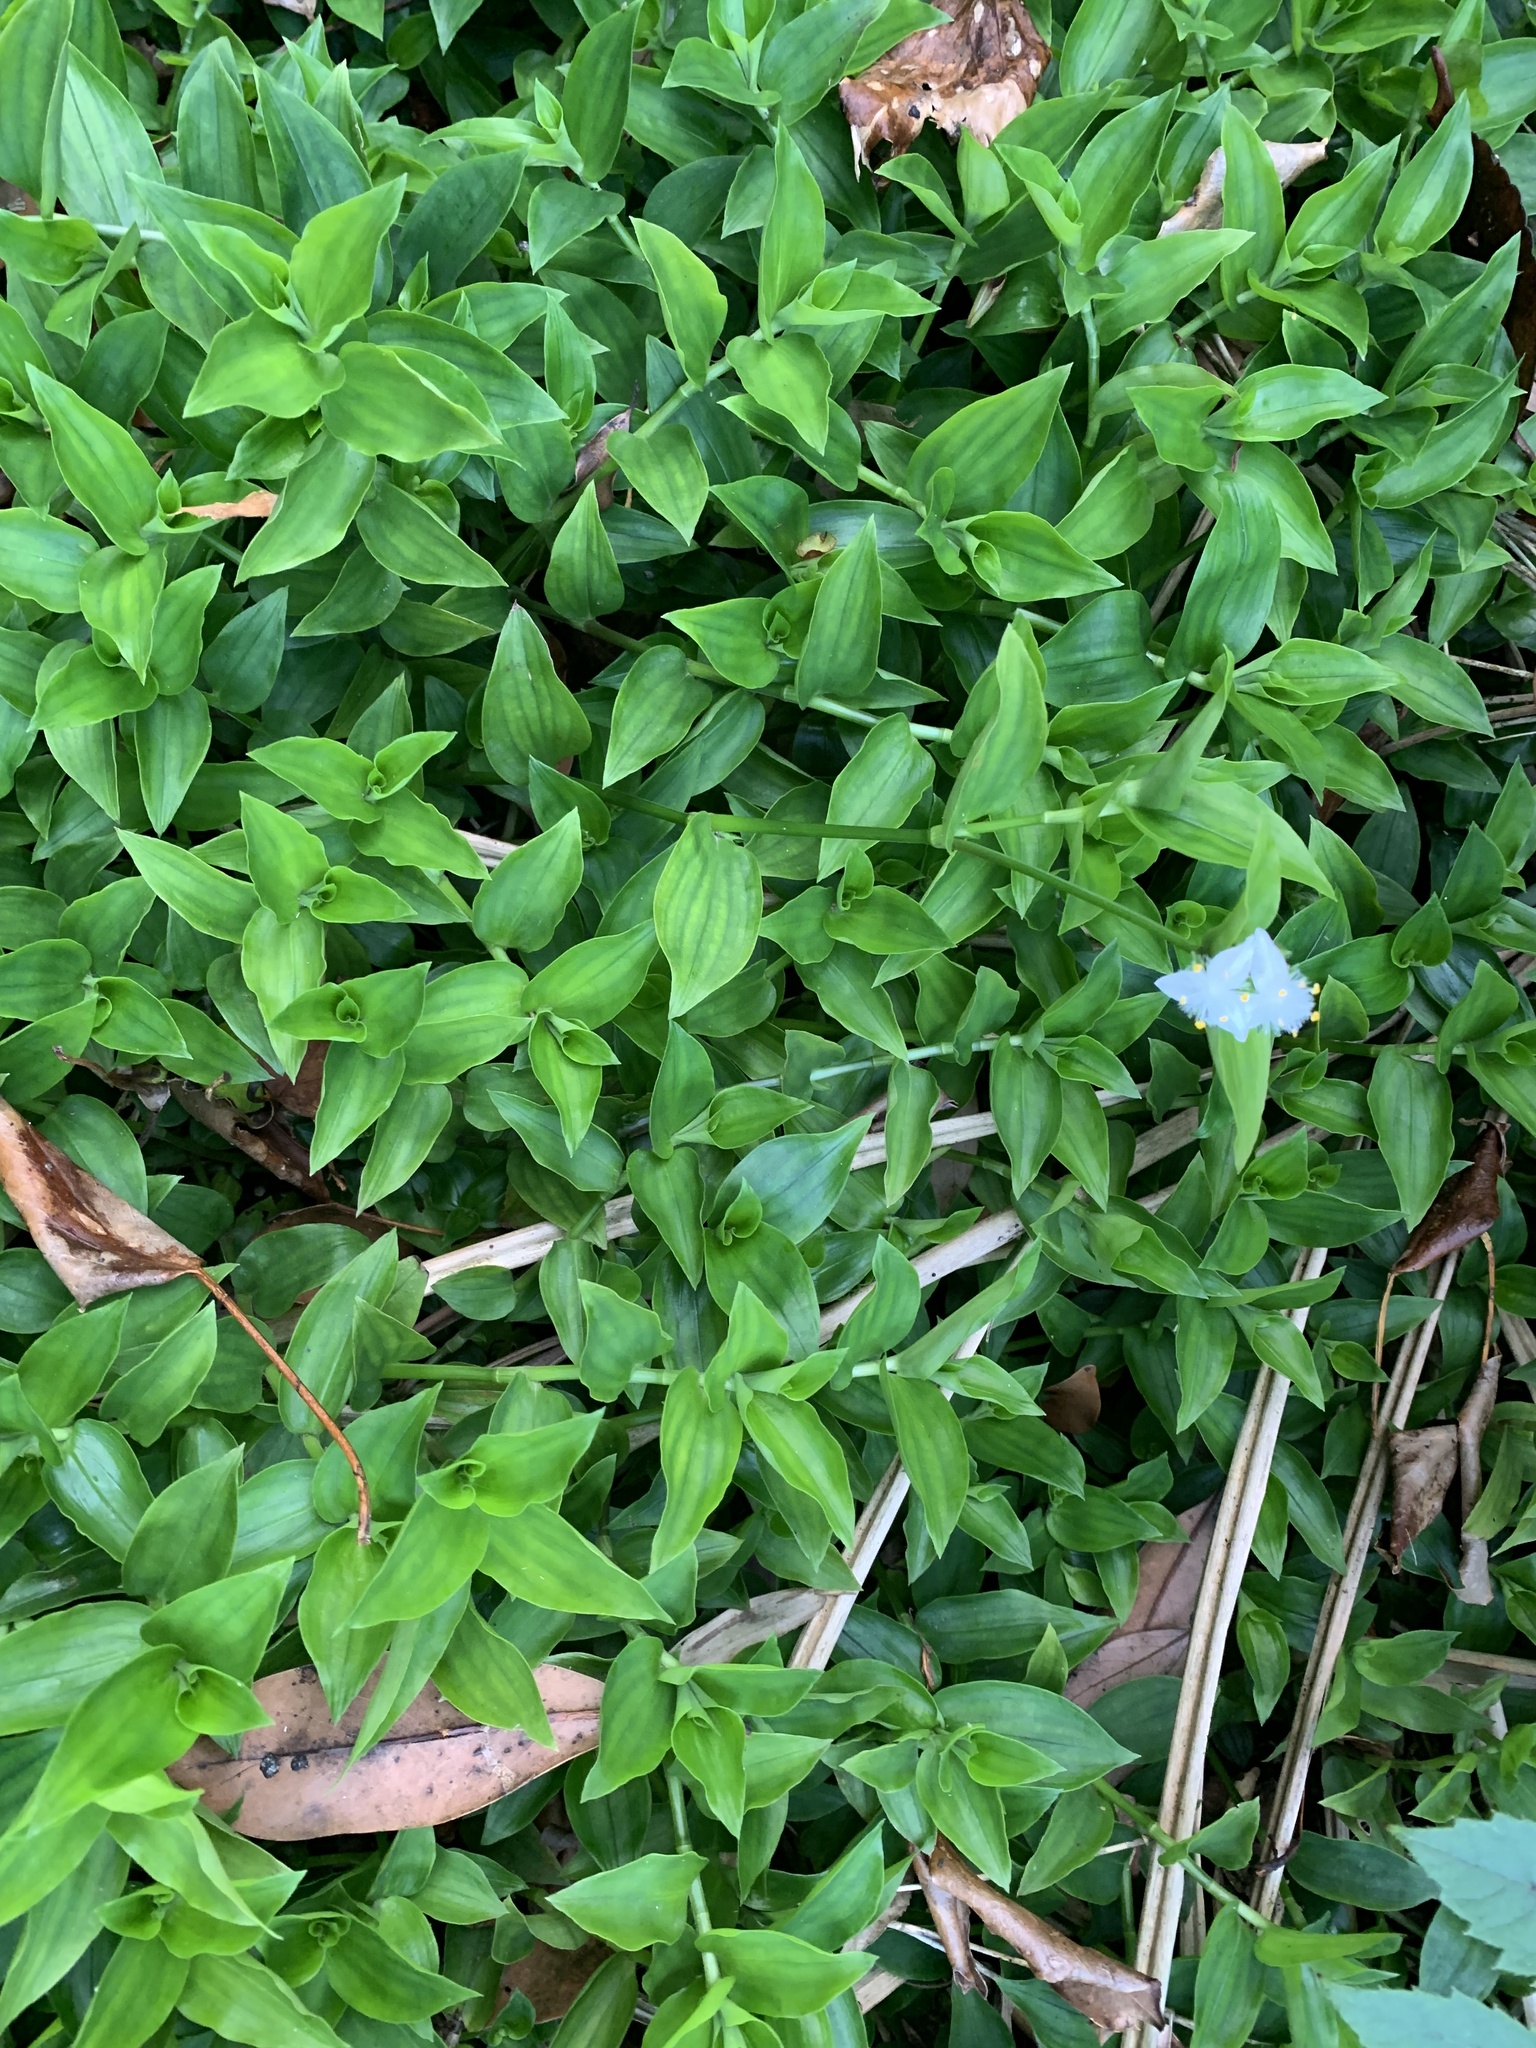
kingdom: Plantae
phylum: Tracheophyta
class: Liliopsida
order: Commelinales
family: Commelinaceae
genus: Tradescantia
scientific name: Tradescantia fluminensis
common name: Wandering-jew
